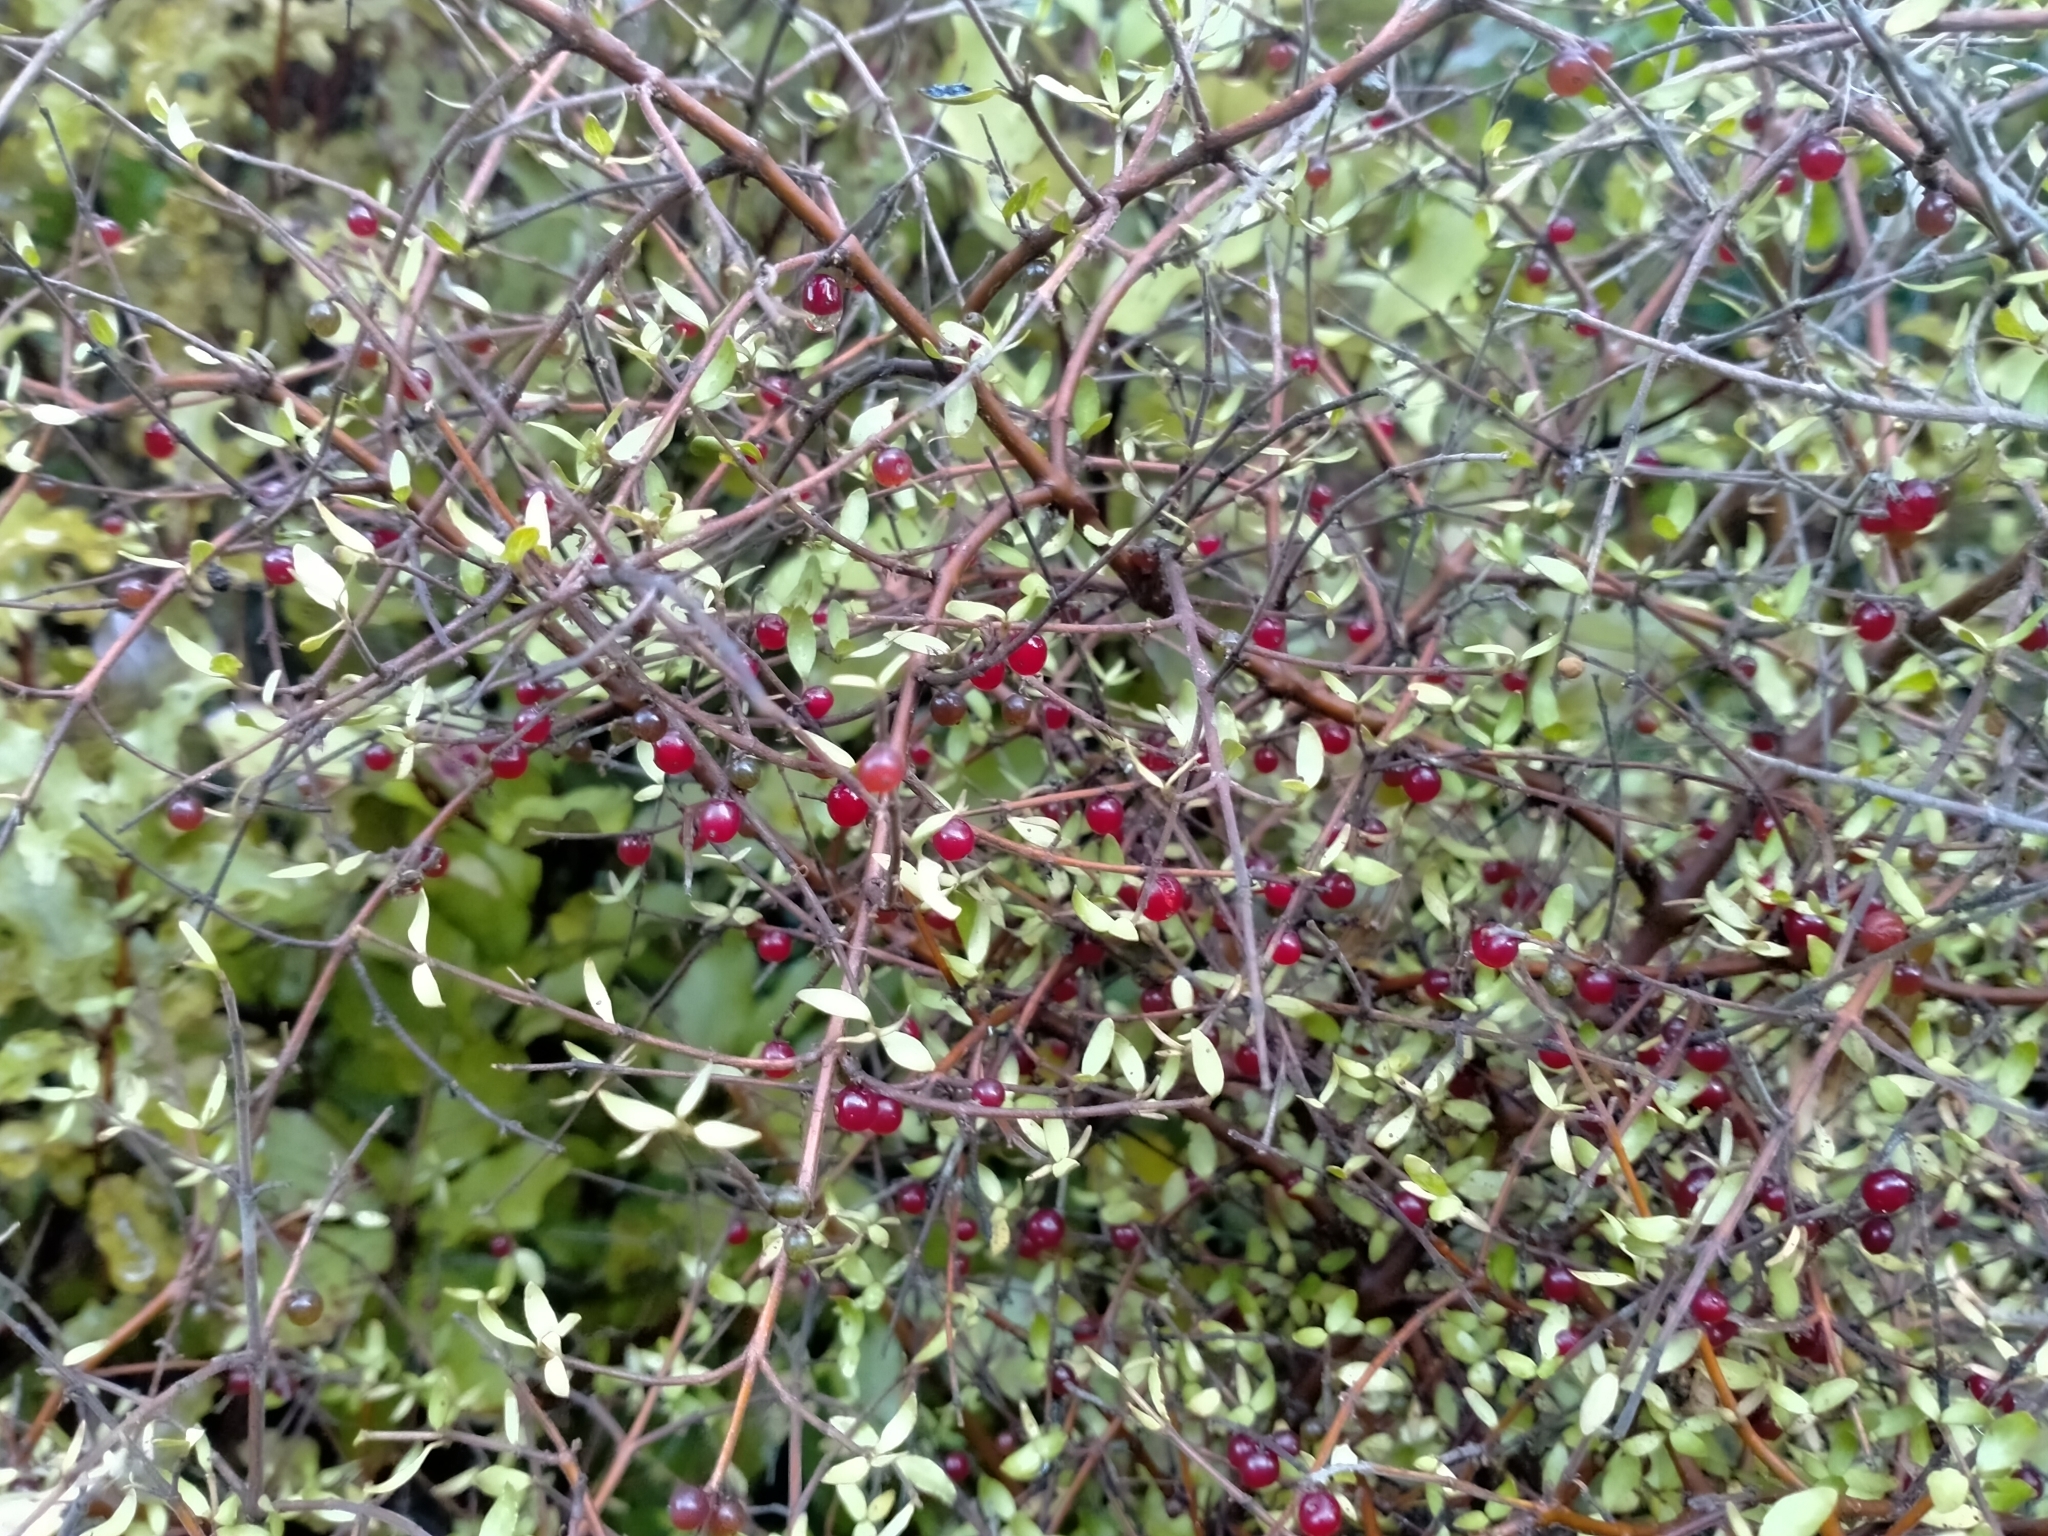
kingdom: Plantae
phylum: Tracheophyta
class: Magnoliopsida
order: Gentianales
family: Rubiaceae
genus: Coprosma
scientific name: Coprosma rhamnoides
